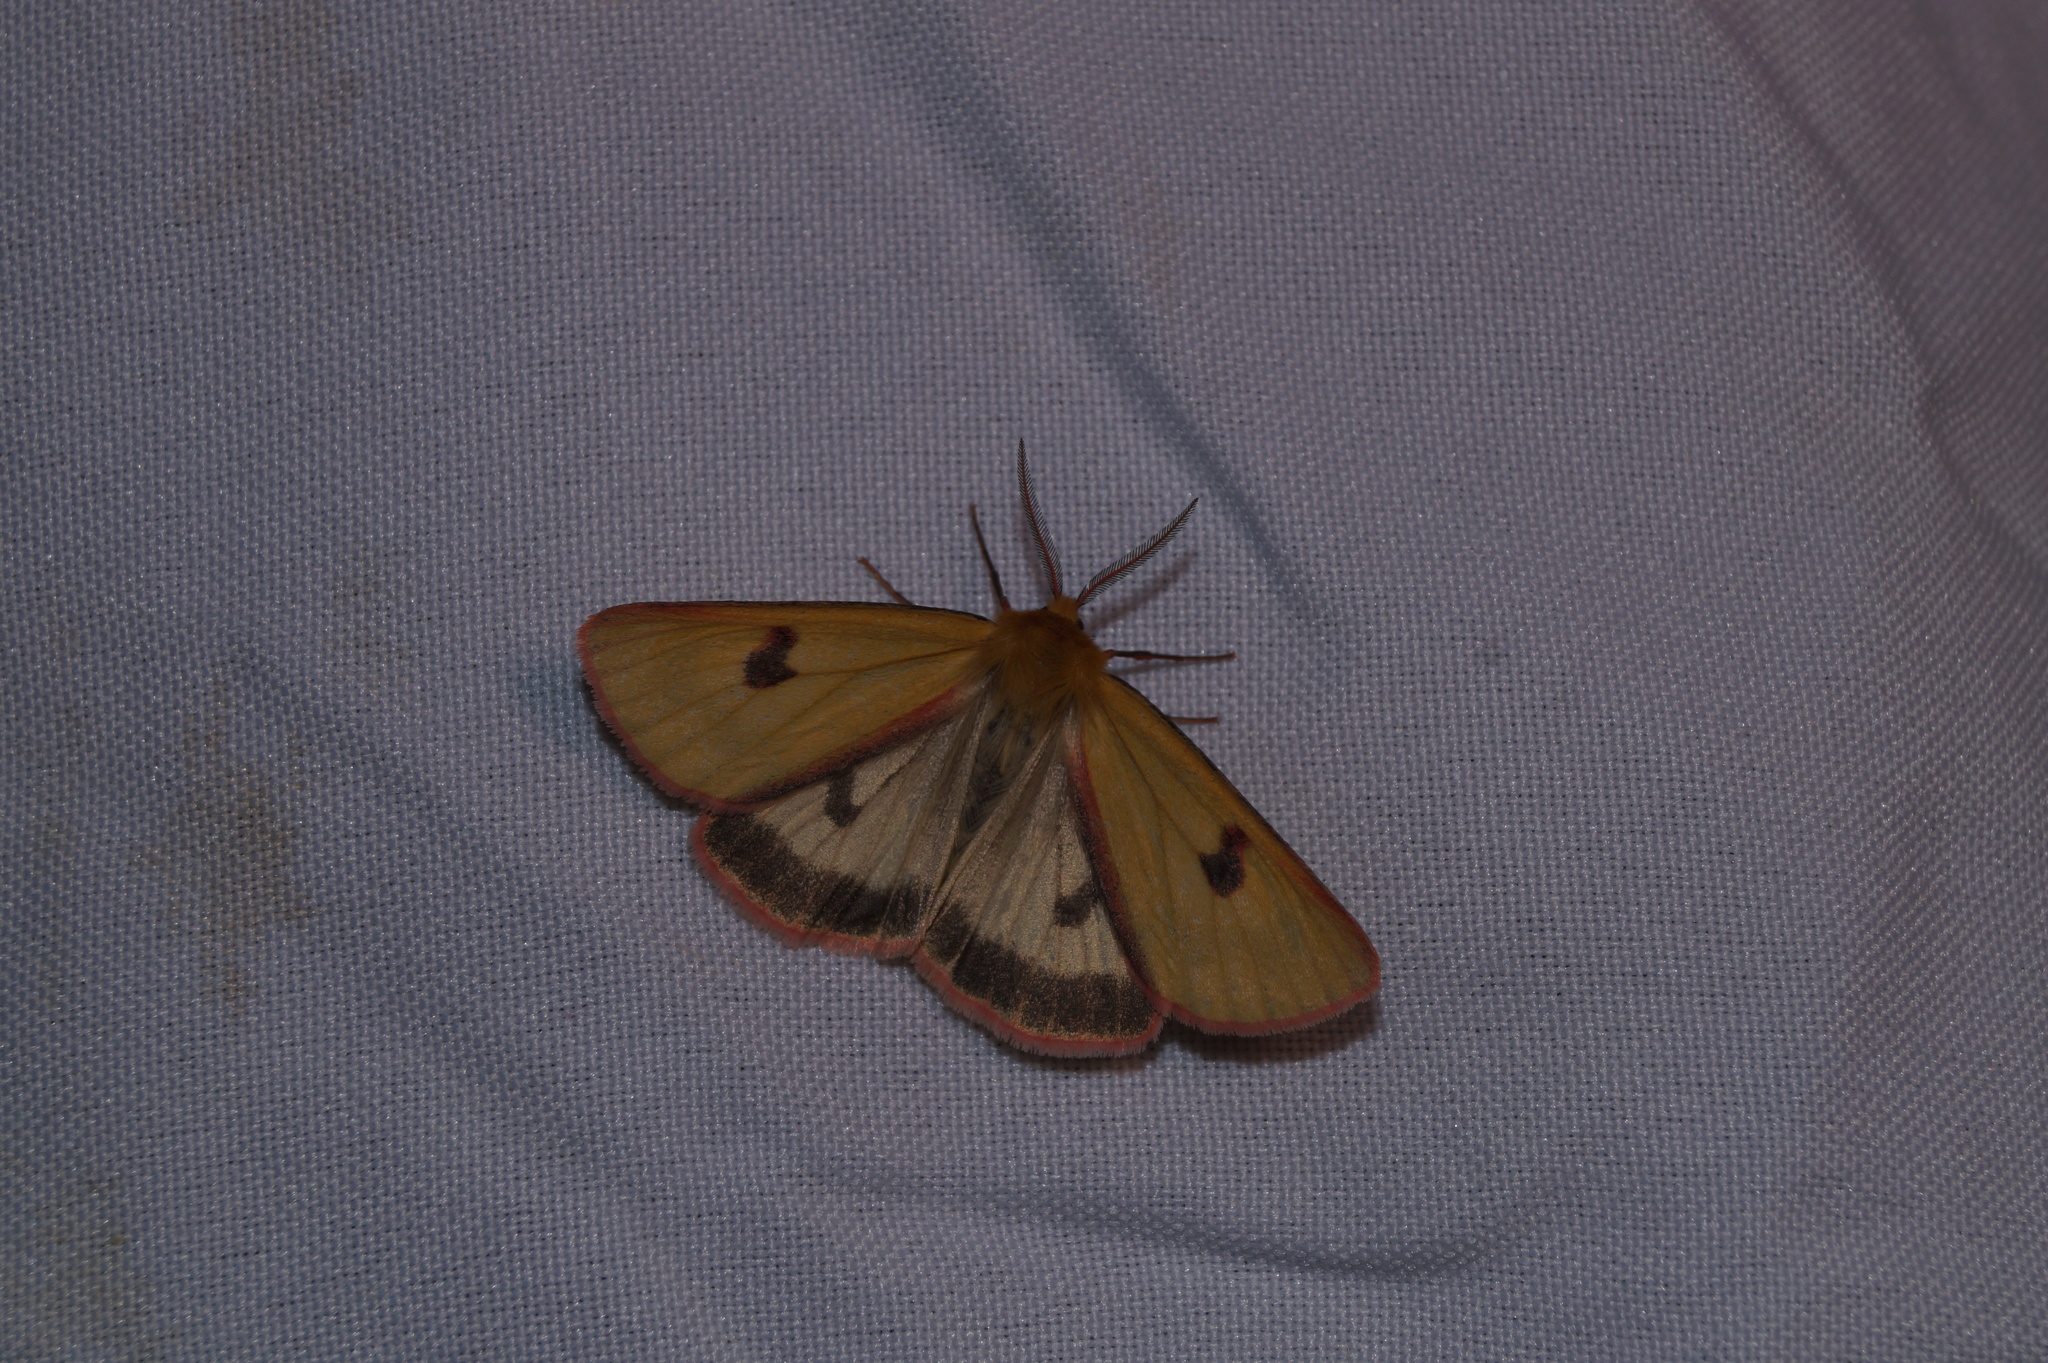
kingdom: Animalia
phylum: Arthropoda
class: Insecta
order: Lepidoptera
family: Erebidae
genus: Diacrisia
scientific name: Diacrisia sannio
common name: Clouded buff
